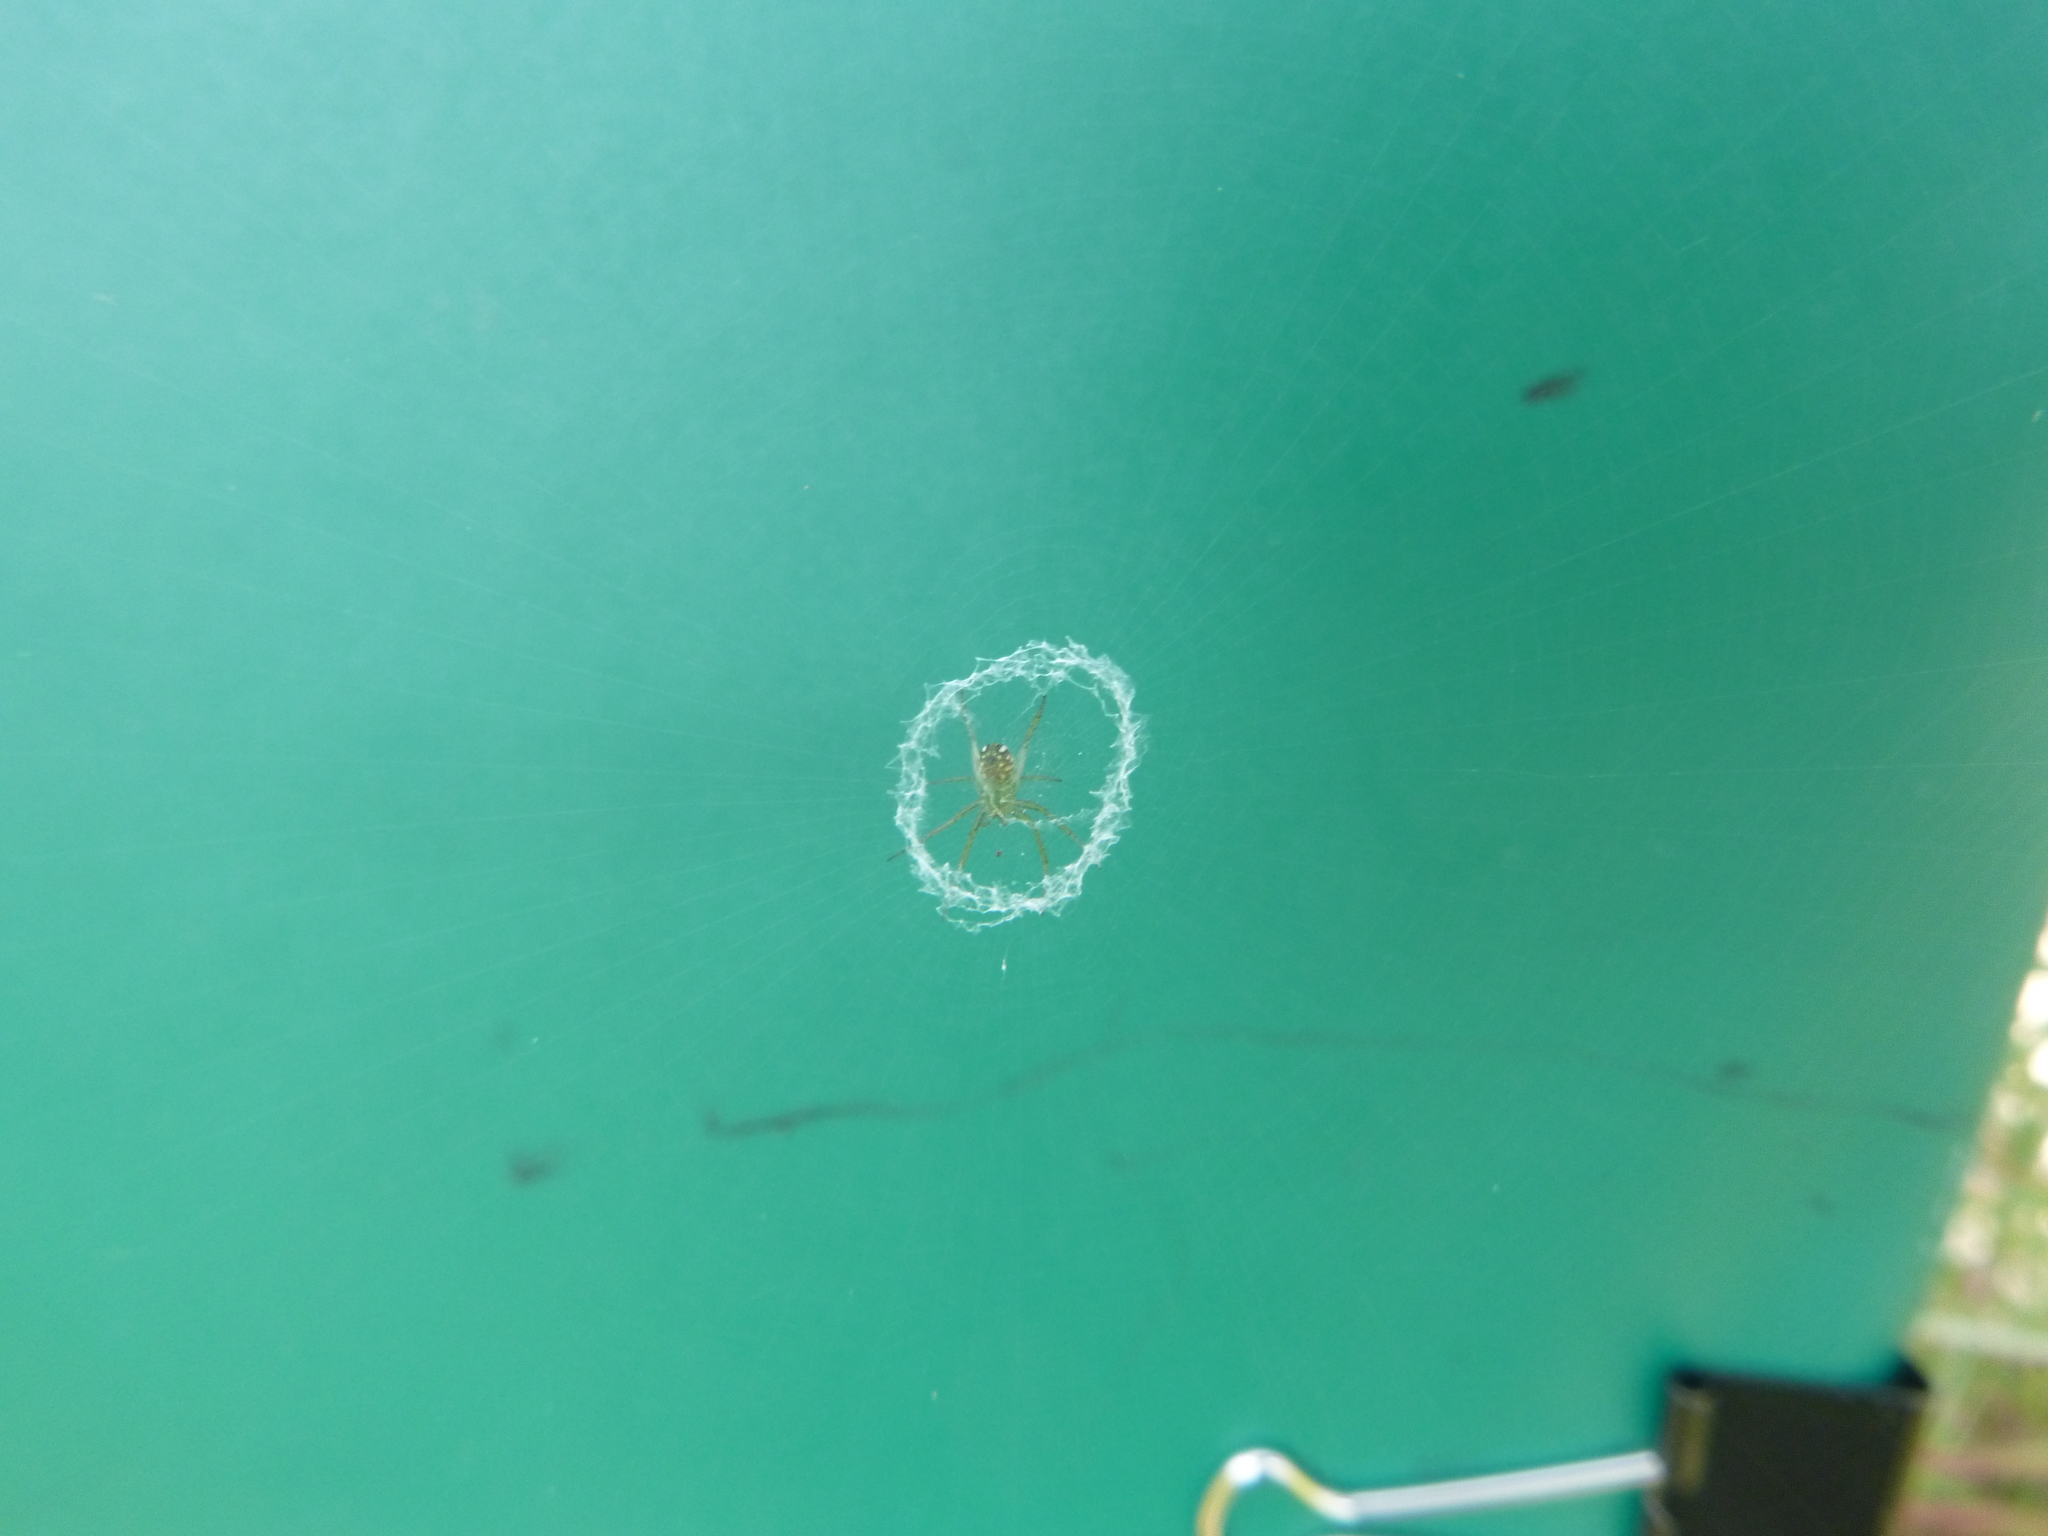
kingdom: Animalia
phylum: Arthropoda
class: Arachnida
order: Araneae
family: Araneidae
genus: Mangora
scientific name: Mangora gibberosa
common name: Lined orbweaver
